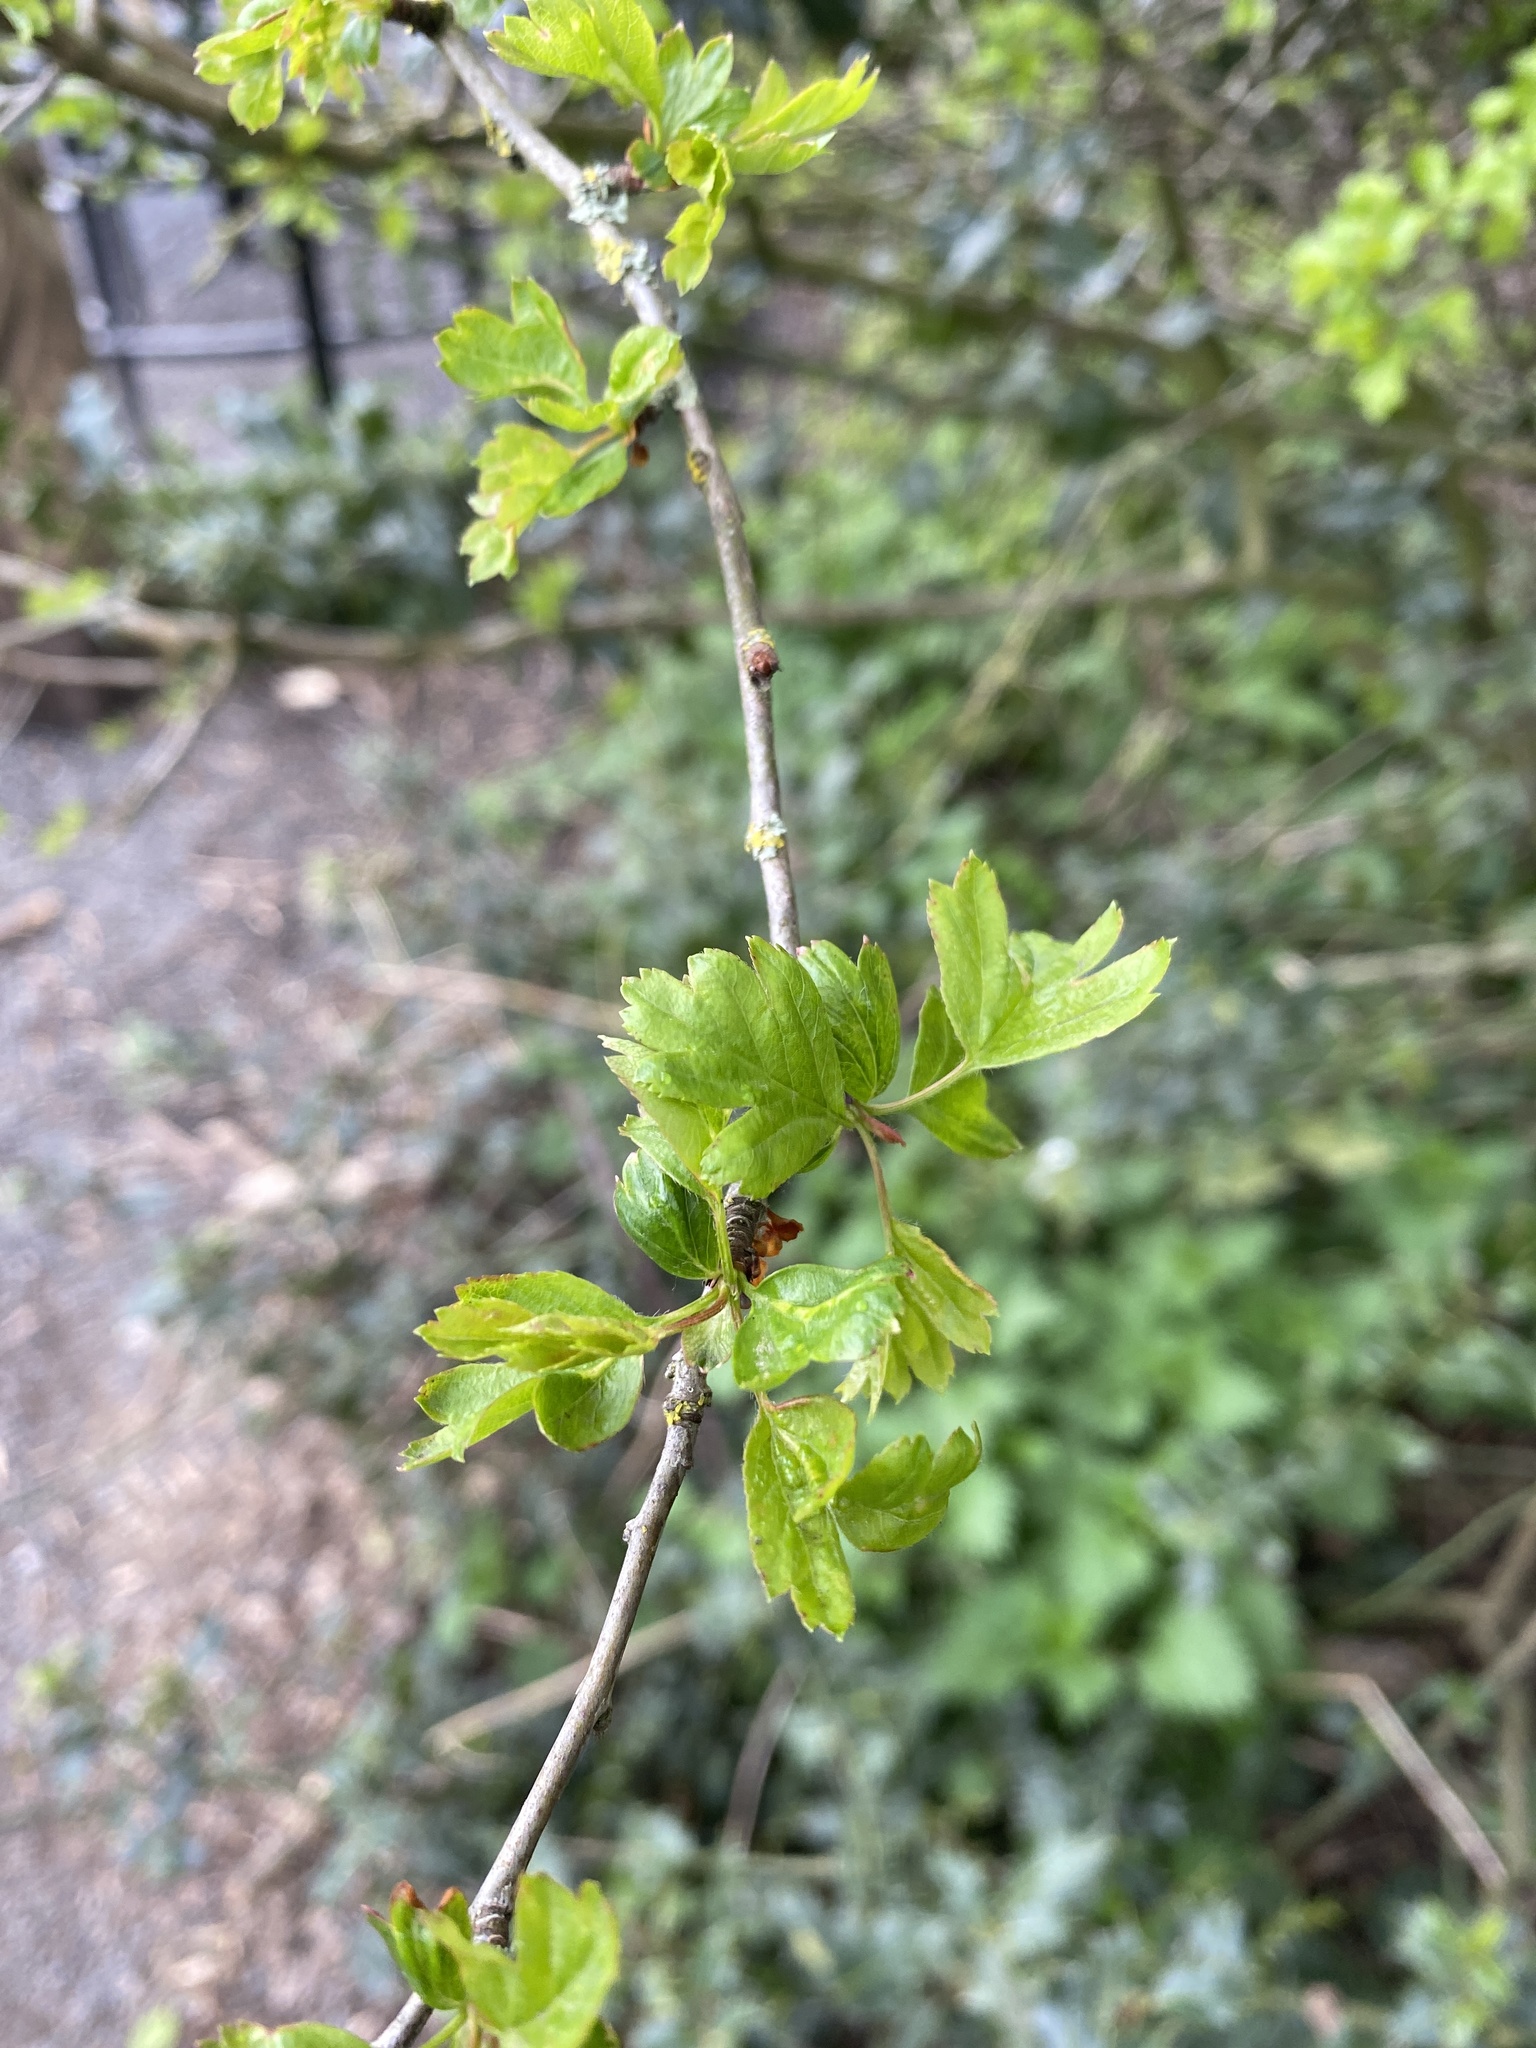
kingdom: Plantae
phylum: Tracheophyta
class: Magnoliopsida
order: Rosales
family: Rosaceae
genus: Crataegus
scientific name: Crataegus monogyna
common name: Hawthorn
